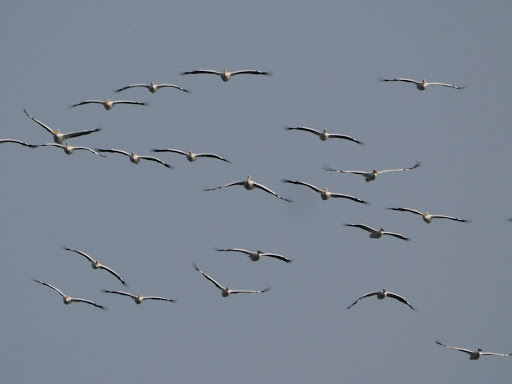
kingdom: Animalia
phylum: Chordata
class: Aves
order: Pelecaniformes
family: Pelecanidae
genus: Pelecanus
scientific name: Pelecanus onocrotalus
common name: Great white pelican
